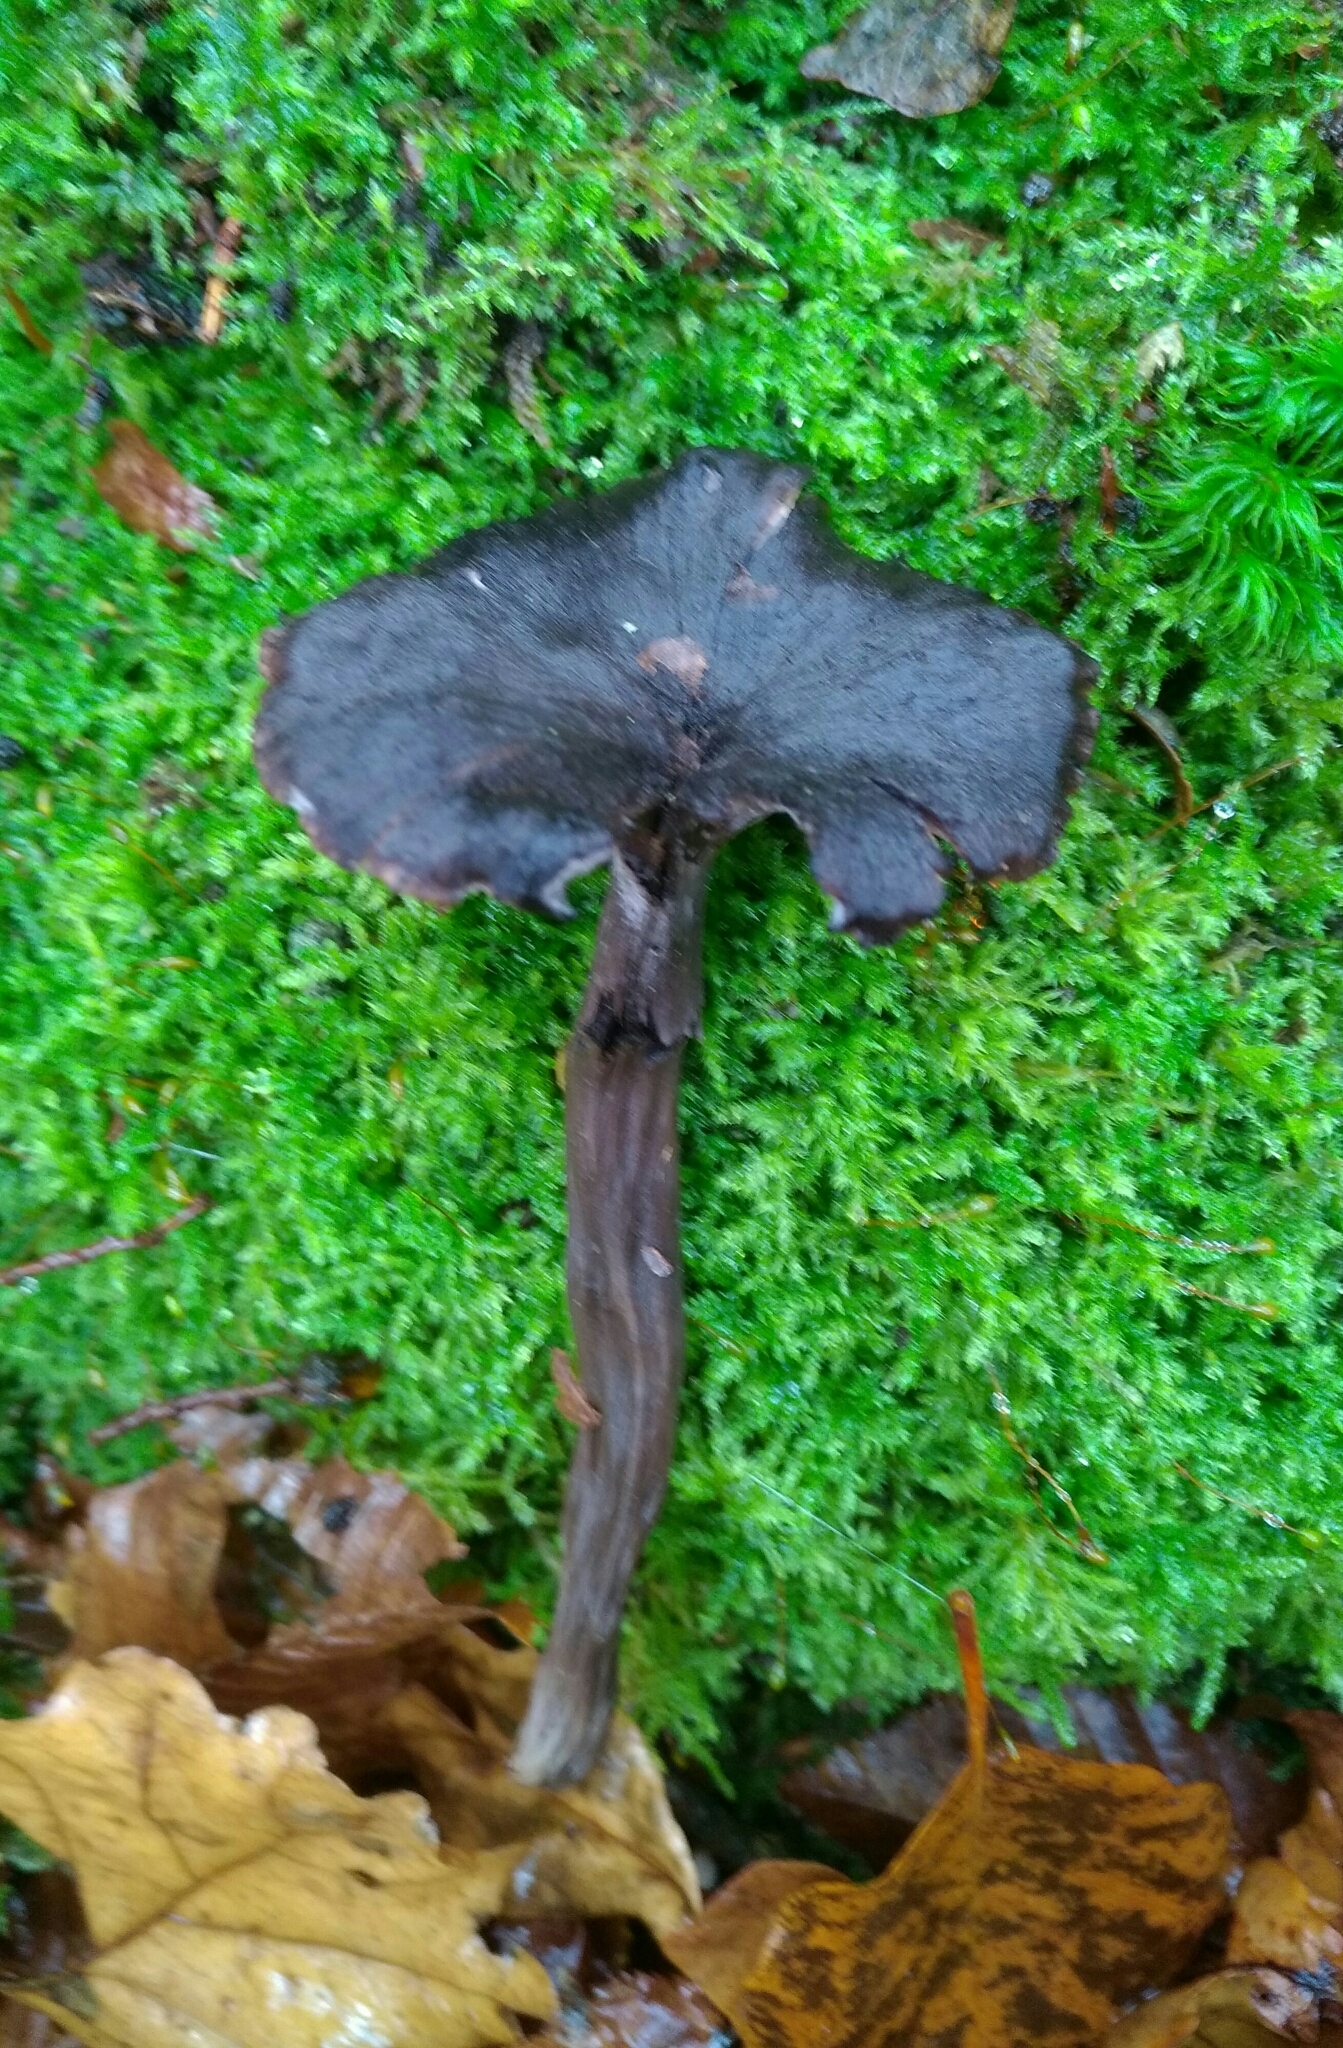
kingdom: Fungi
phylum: Basidiomycota
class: Agaricomycetes
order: Cantharellales
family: Hydnaceae
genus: Cantharellus
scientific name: Cantharellus cinereus
